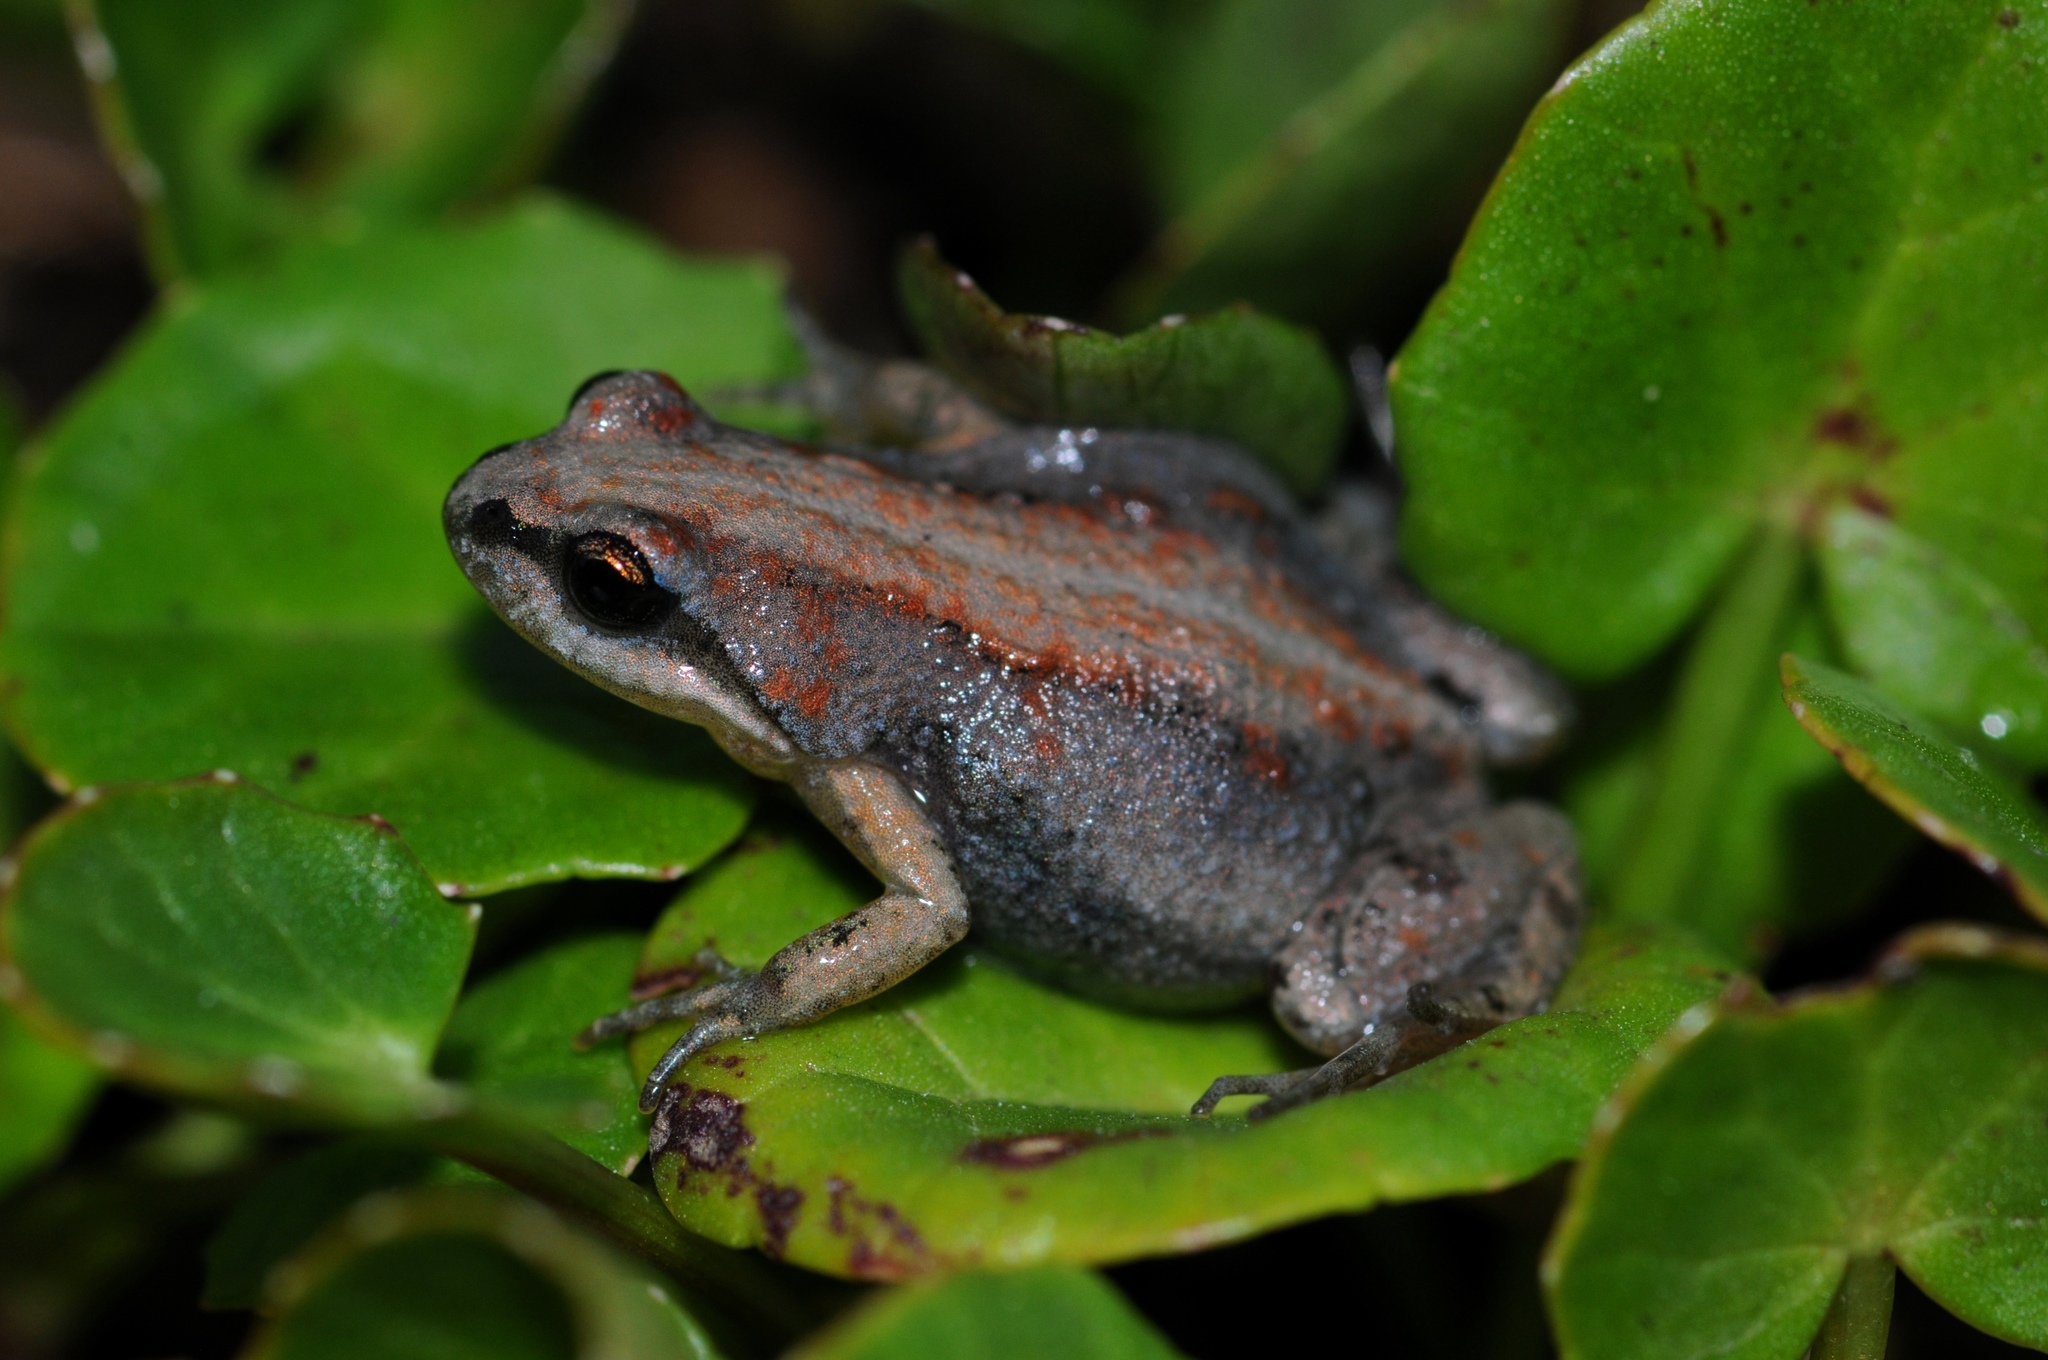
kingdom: Animalia
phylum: Chordata
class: Amphibia
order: Anura
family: Pyxicephalidae
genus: Cacosternum
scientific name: Cacosternum platys
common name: Smooth dainty frog
